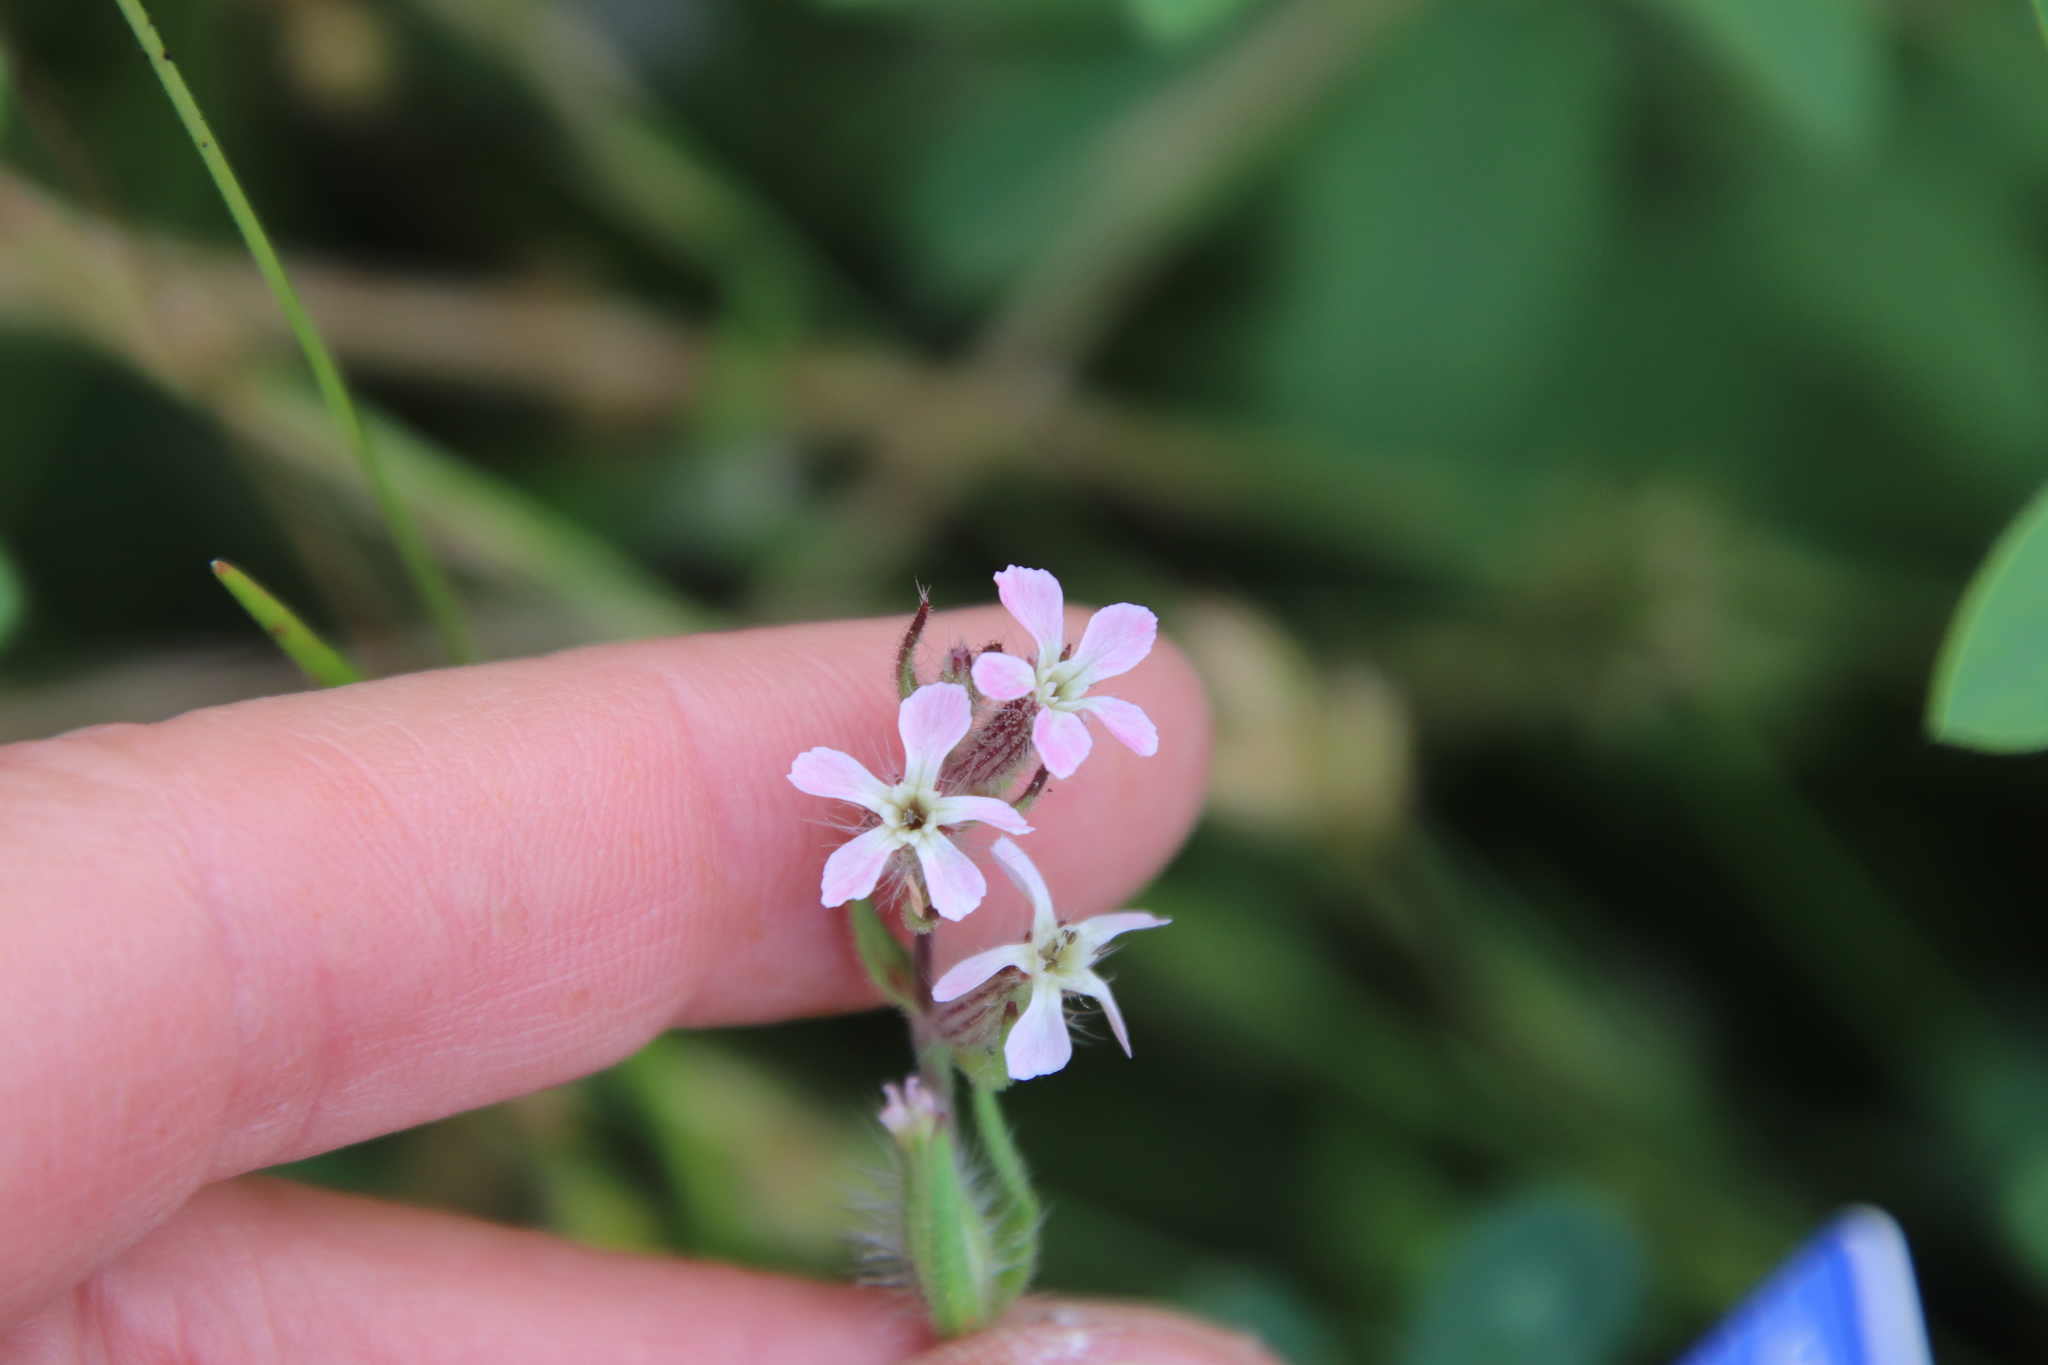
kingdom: Plantae
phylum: Tracheophyta
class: Magnoliopsida
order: Caryophyllales
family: Caryophyllaceae
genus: Silene
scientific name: Silene gallica
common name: Small-flowered catchfly
